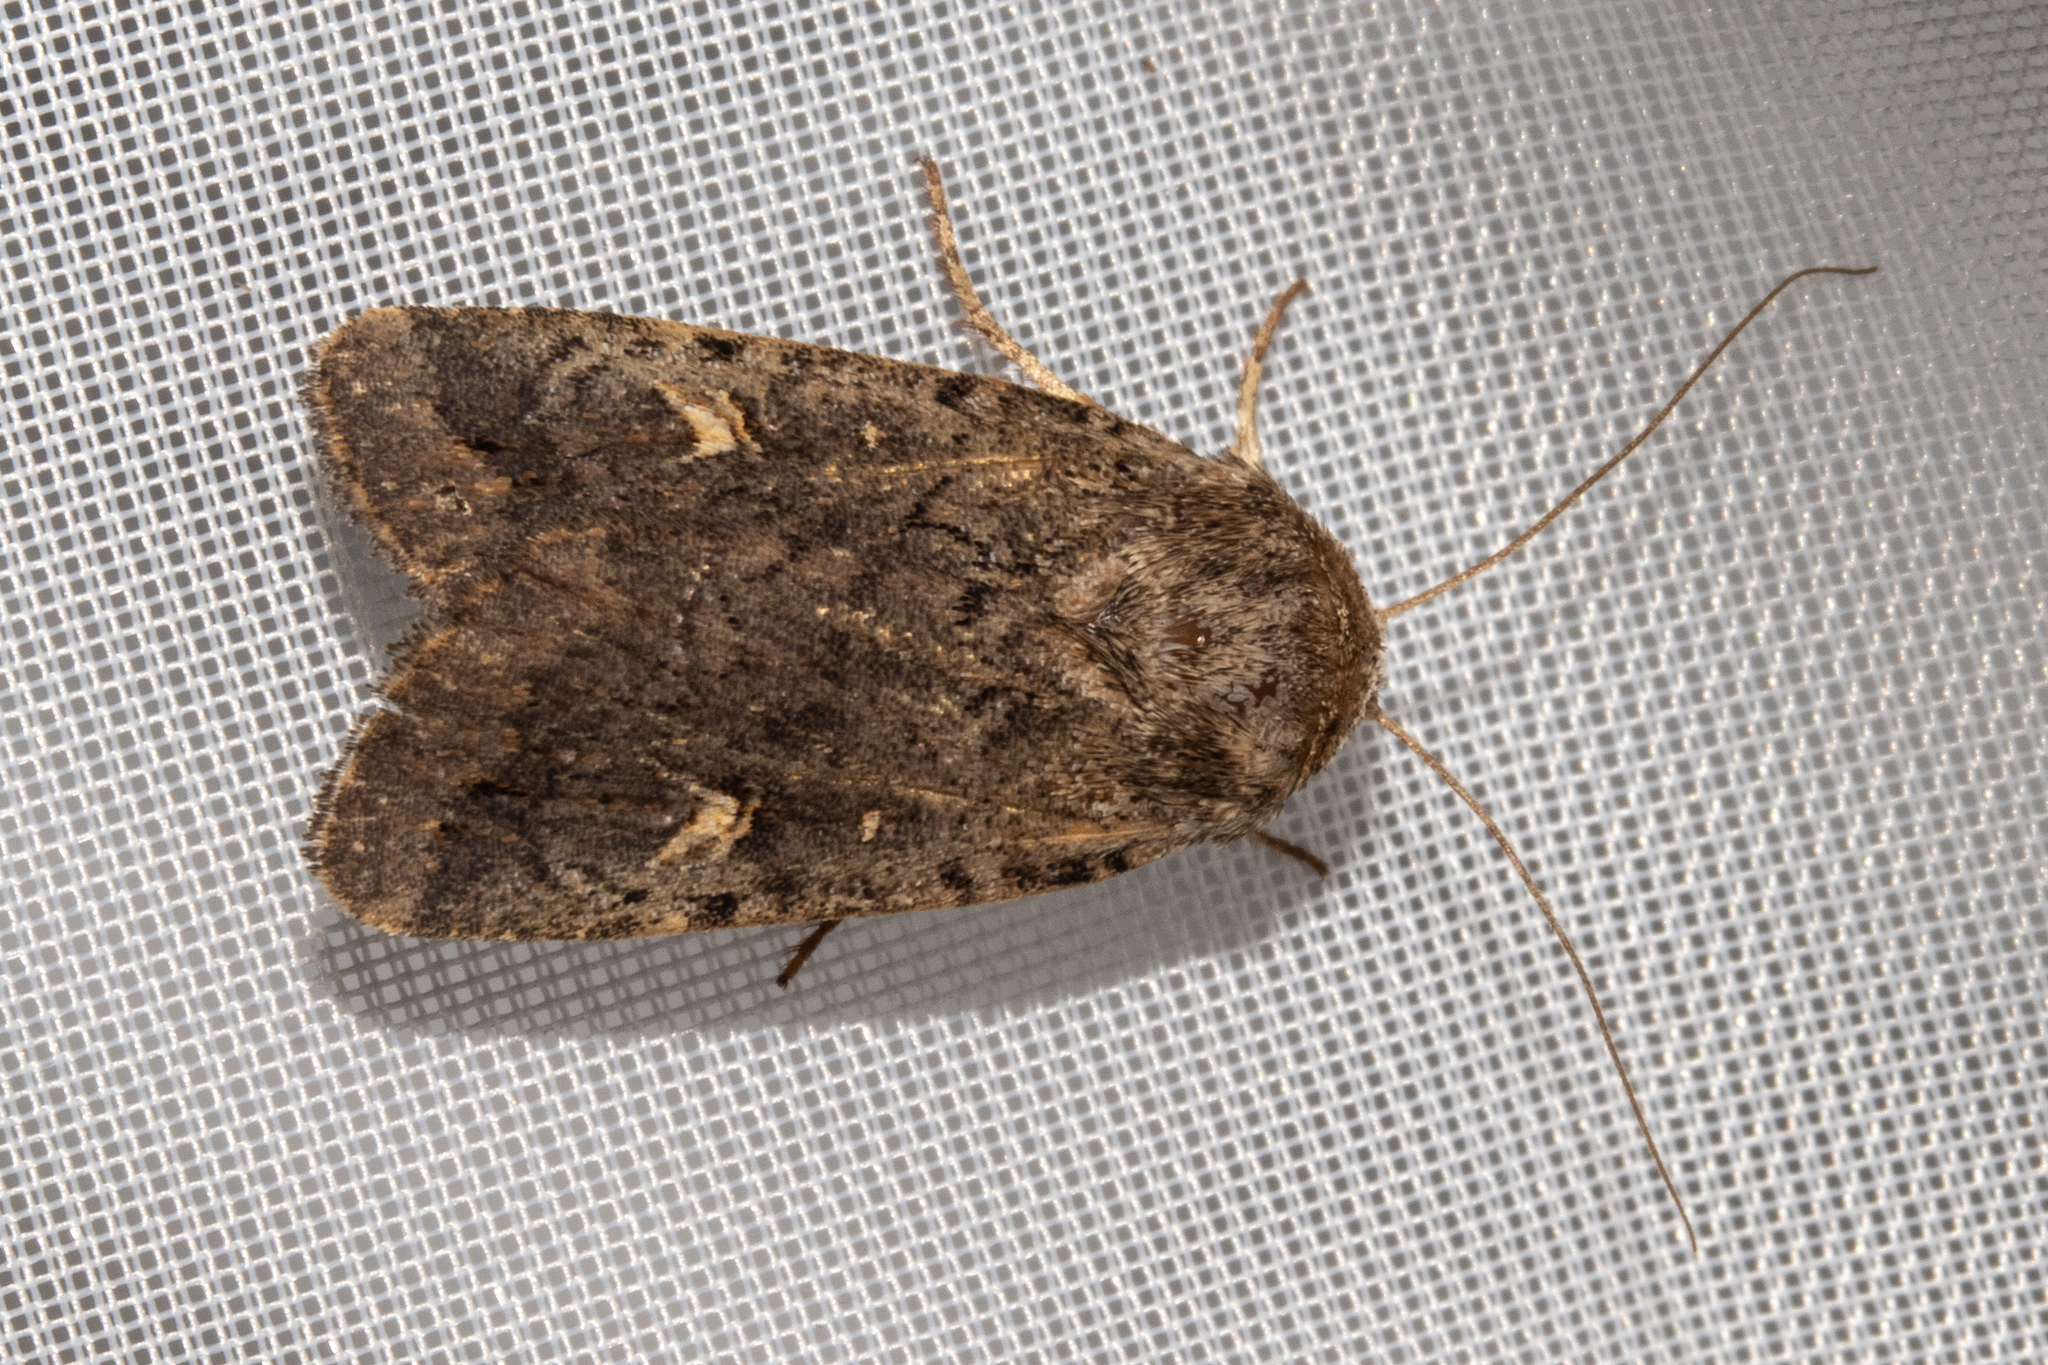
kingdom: Animalia
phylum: Arthropoda
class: Insecta
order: Lepidoptera
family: Noctuidae
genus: Proteuxoa
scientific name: Proteuxoa tetronycha
